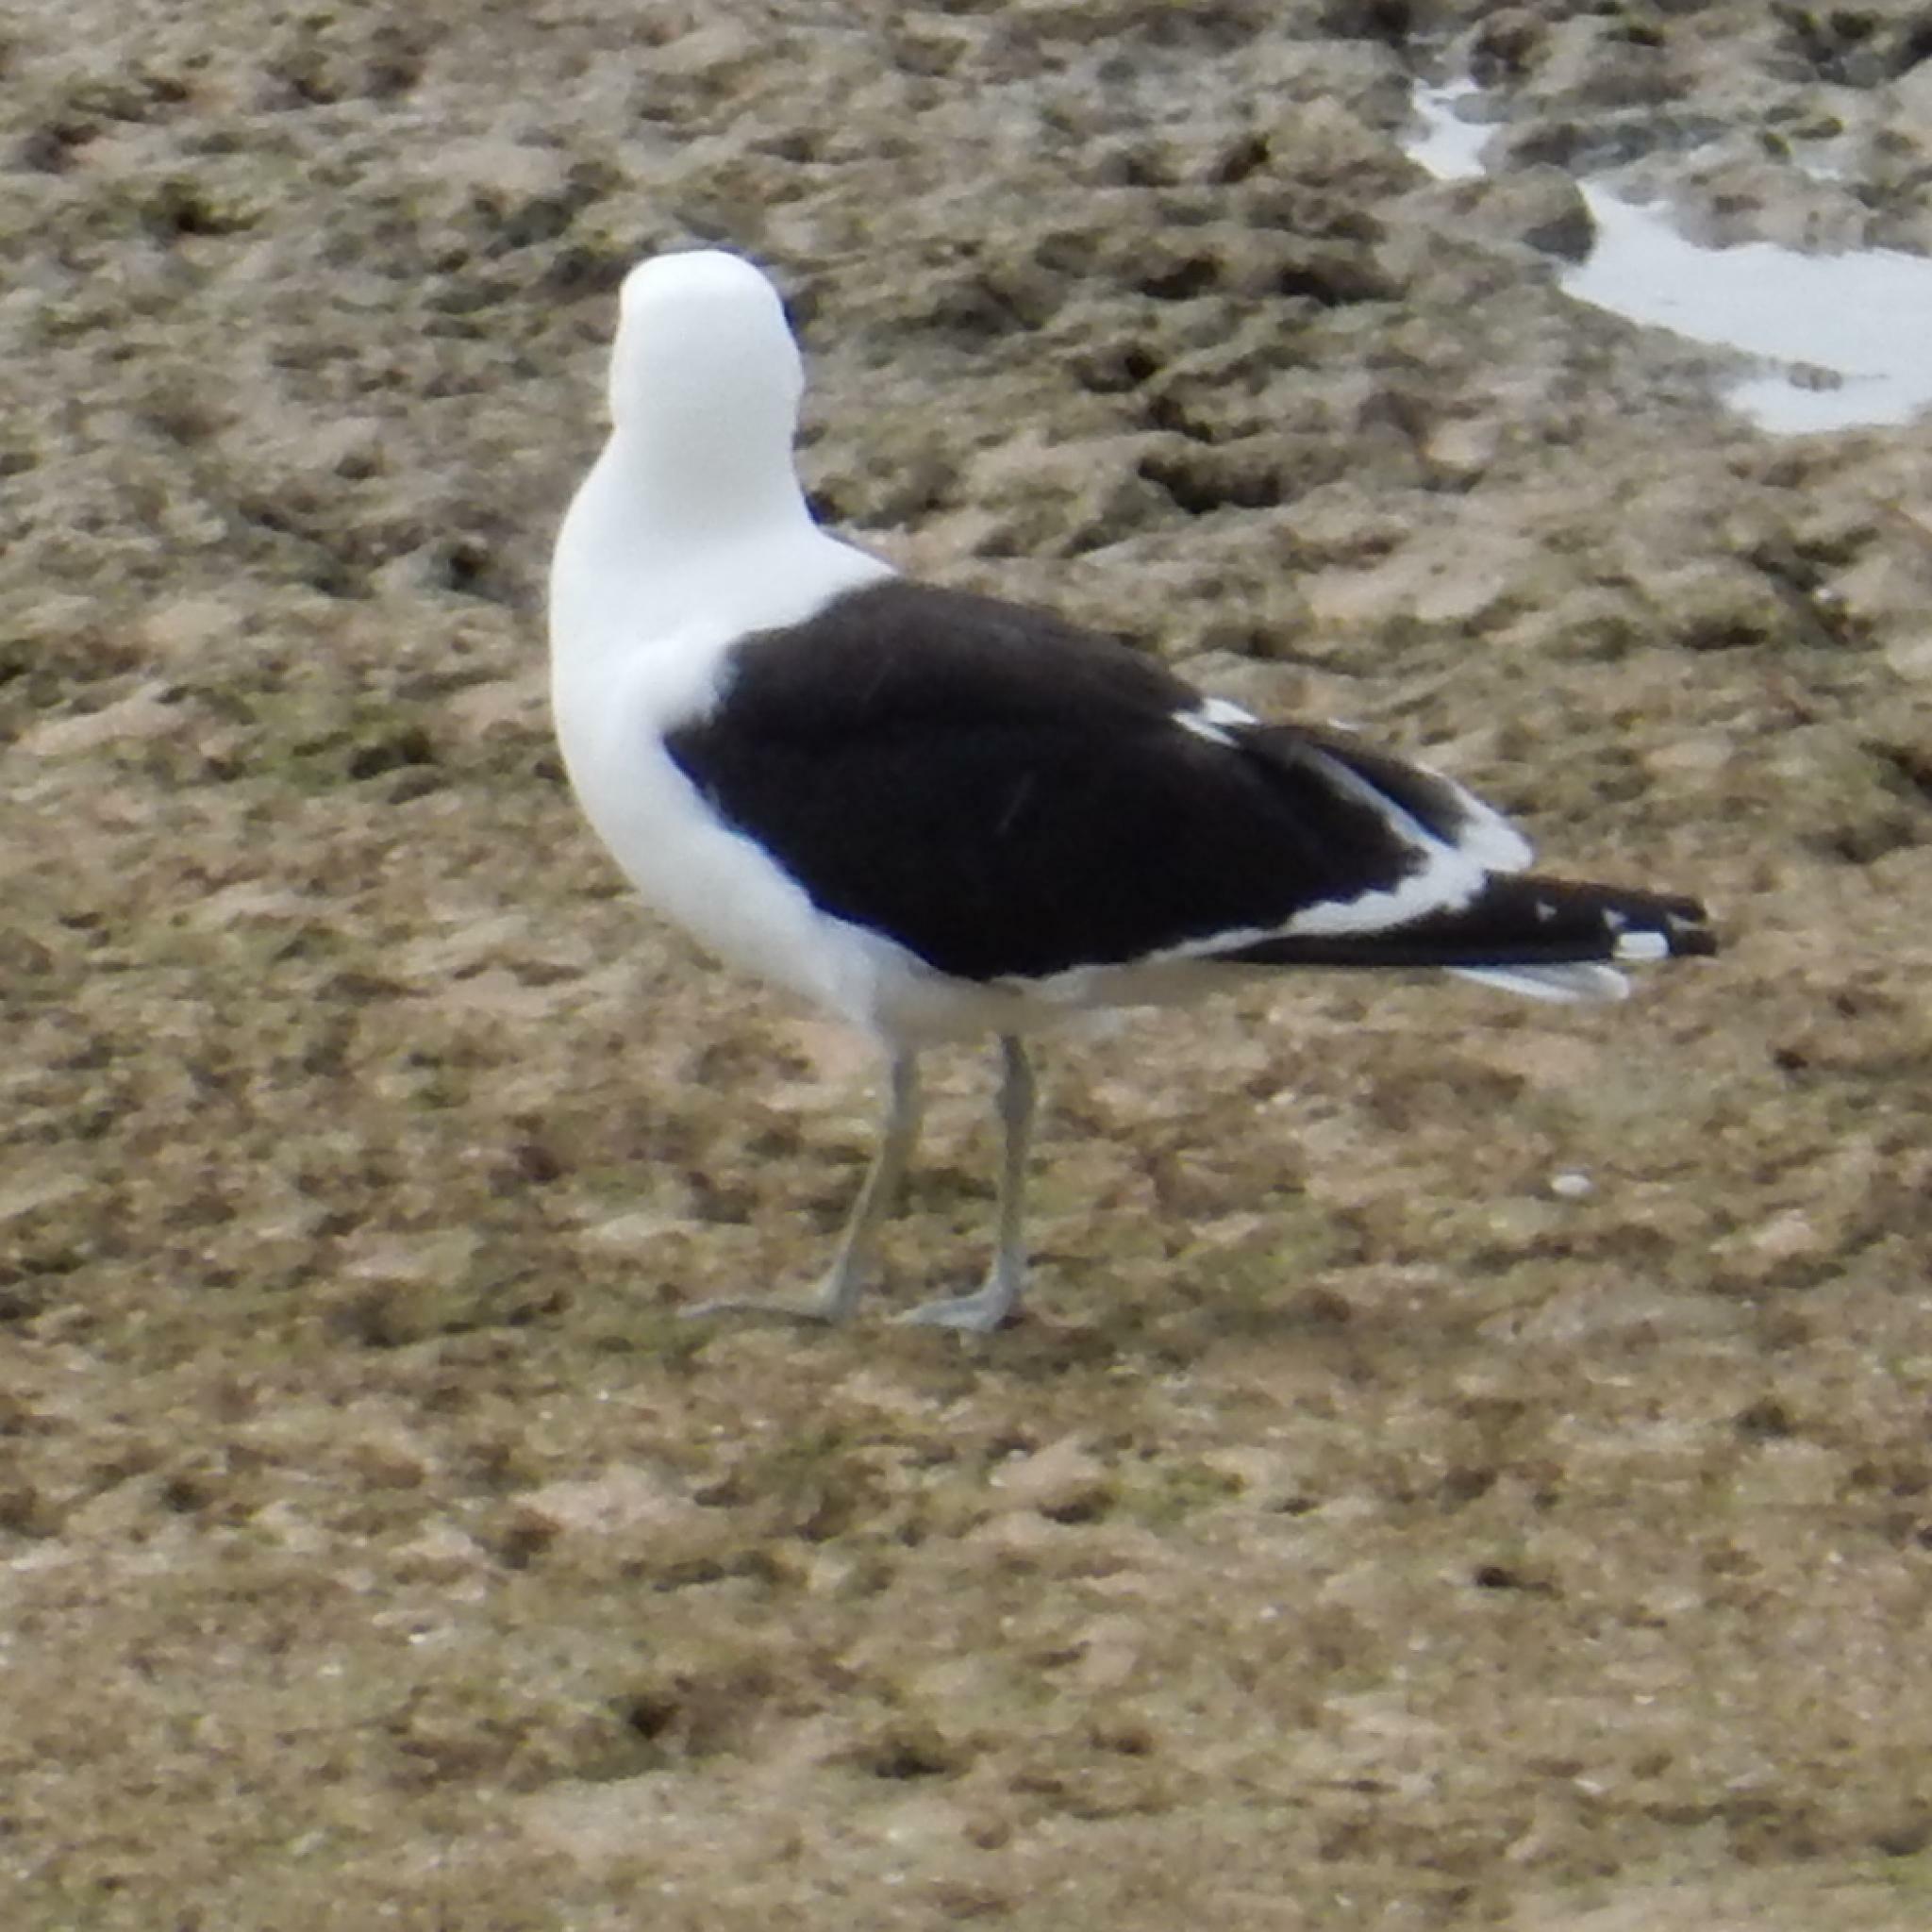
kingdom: Animalia
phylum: Chordata
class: Aves
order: Charadriiformes
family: Laridae
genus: Larus
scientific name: Larus dominicanus
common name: Kelp gull
